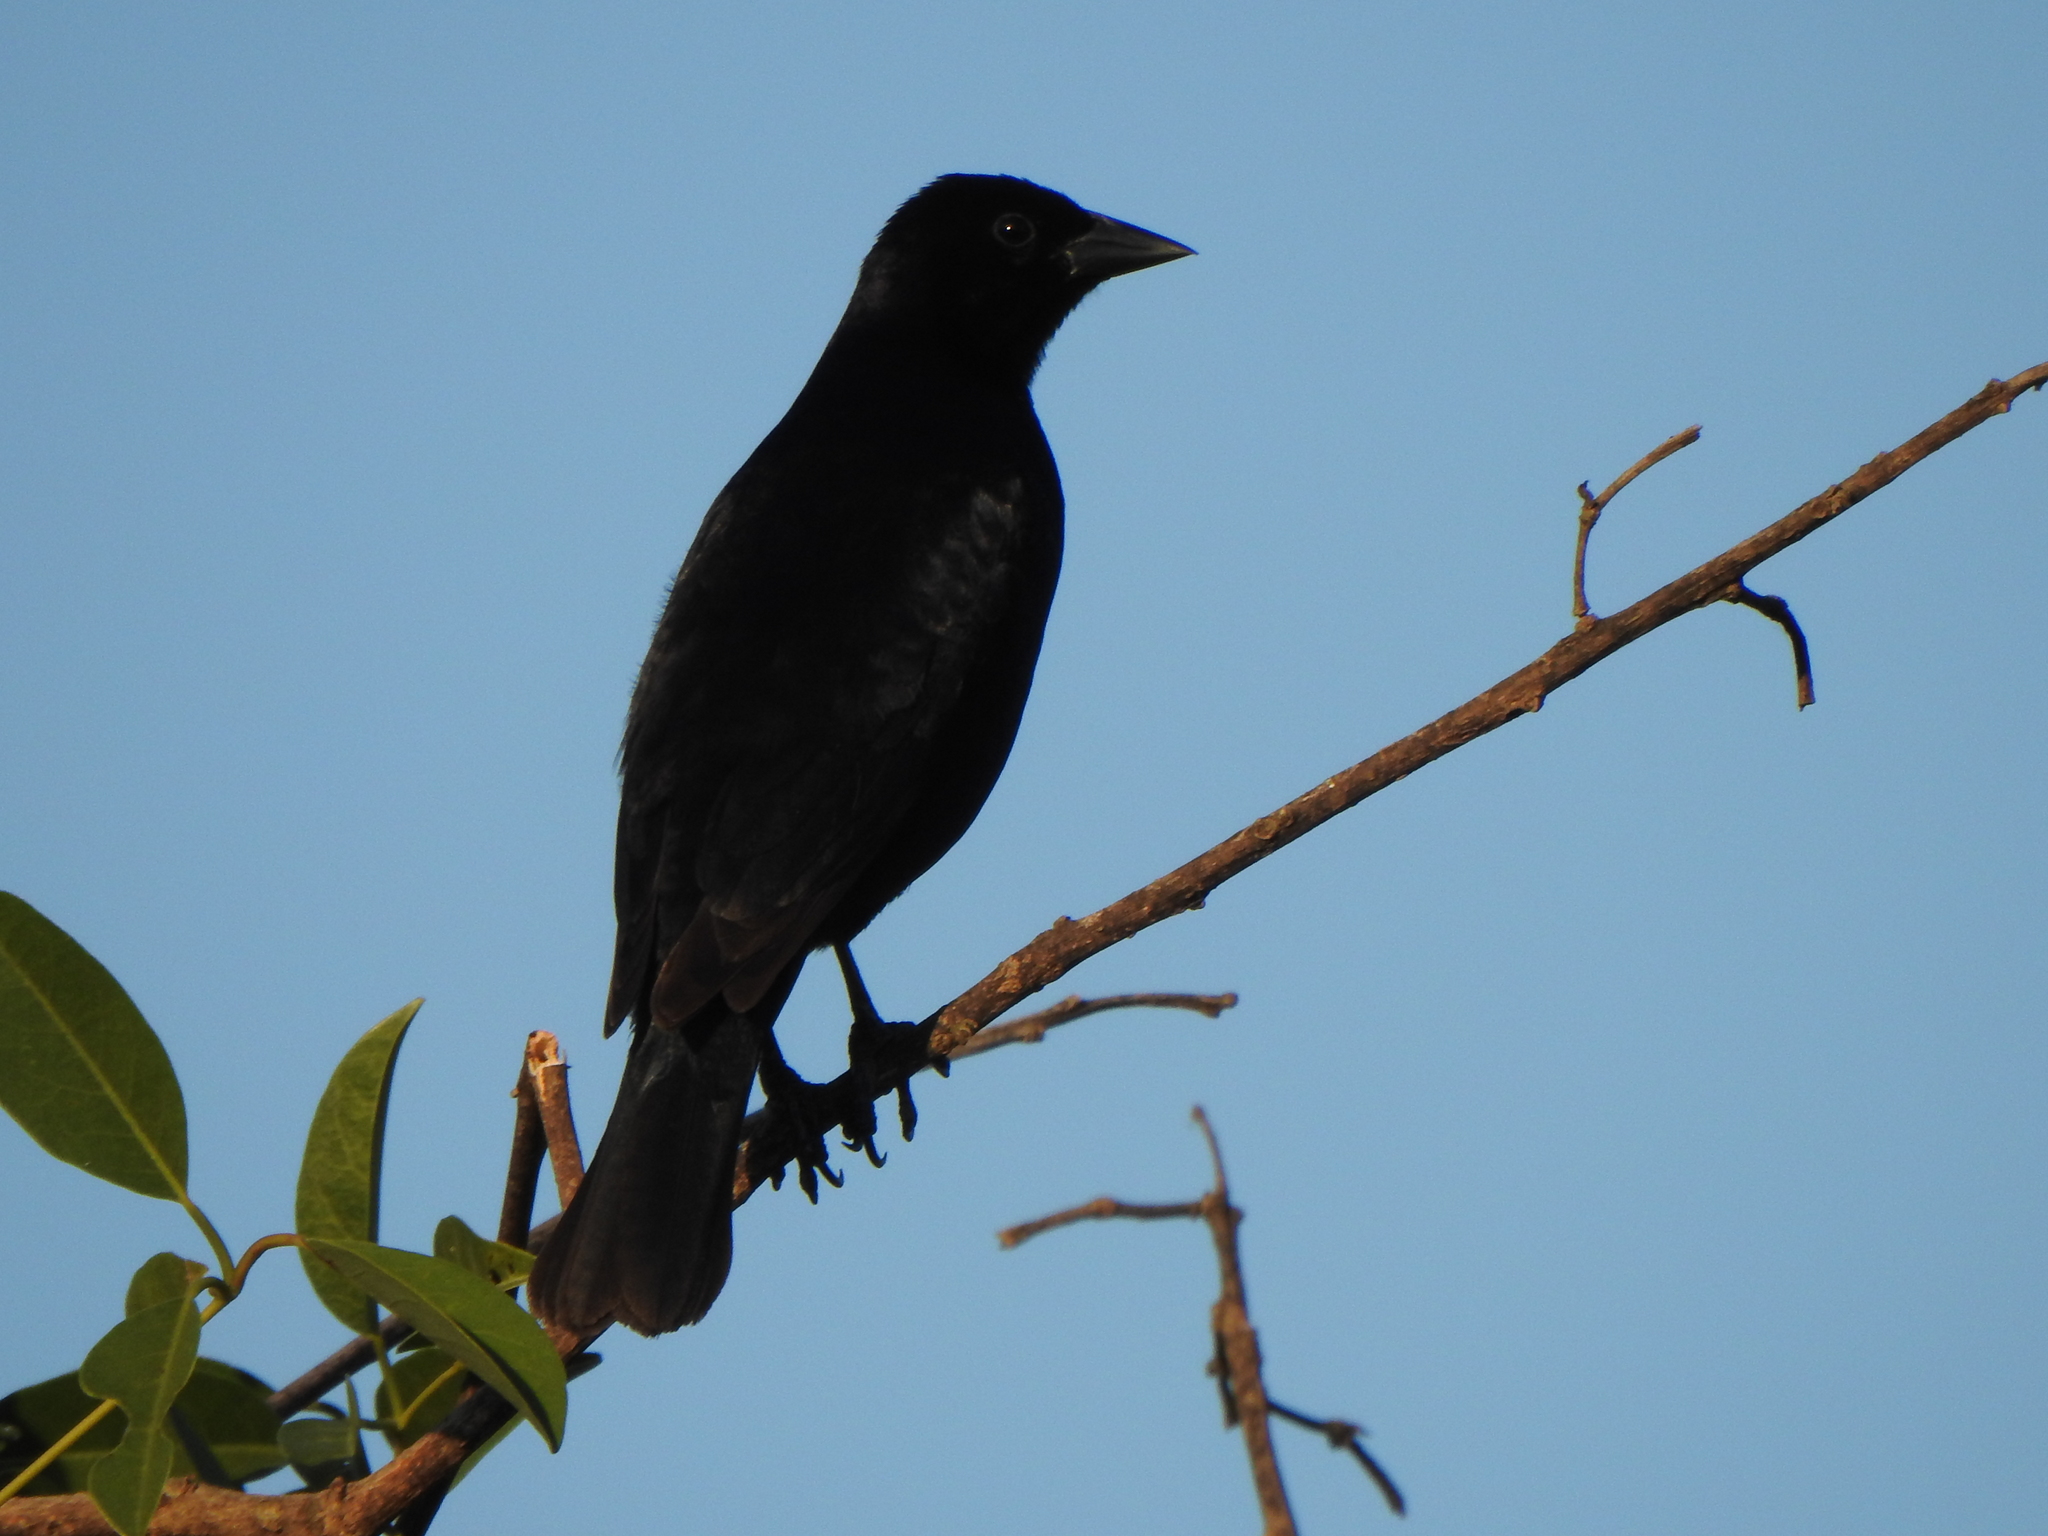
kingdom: Animalia
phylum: Chordata
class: Aves
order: Passeriformes
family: Icteridae
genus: Molothrus
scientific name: Molothrus bonariensis
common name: Shiny cowbird
